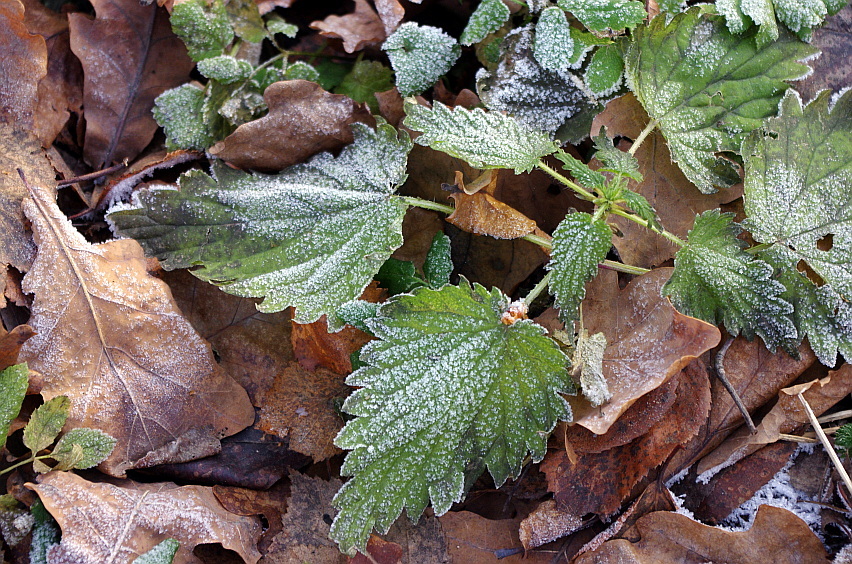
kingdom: Plantae
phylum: Tracheophyta
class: Magnoliopsida
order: Rosales
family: Urticaceae
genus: Urtica
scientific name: Urtica dioica
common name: Common nettle
